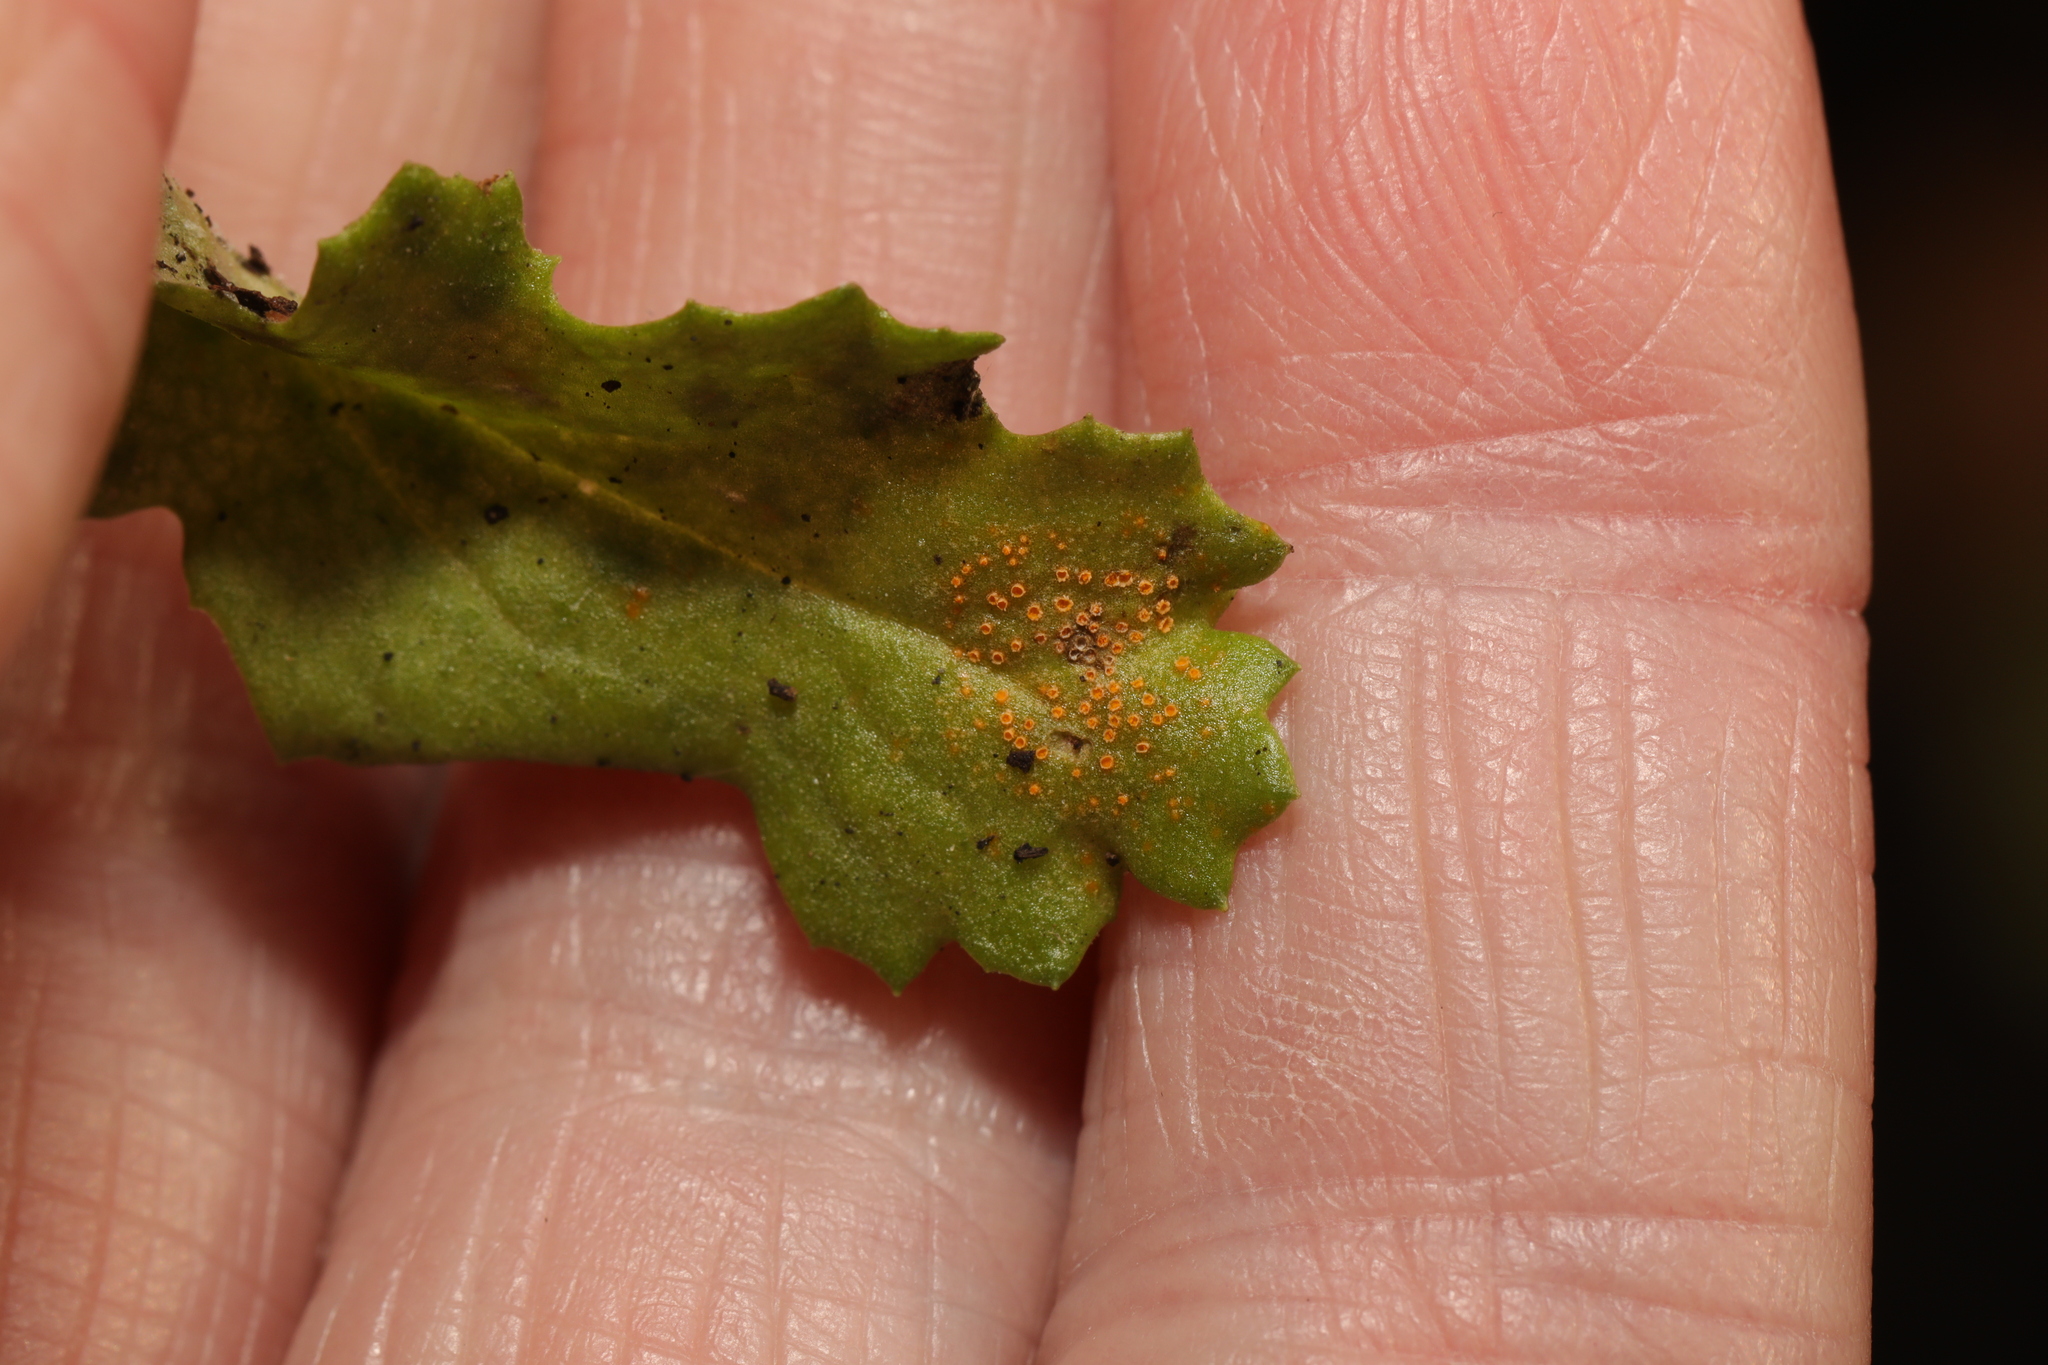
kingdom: Fungi
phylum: Basidiomycota
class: Pucciniomycetes
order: Pucciniales
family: Pucciniaceae
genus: Puccinia
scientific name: Puccinia lagenophorae
